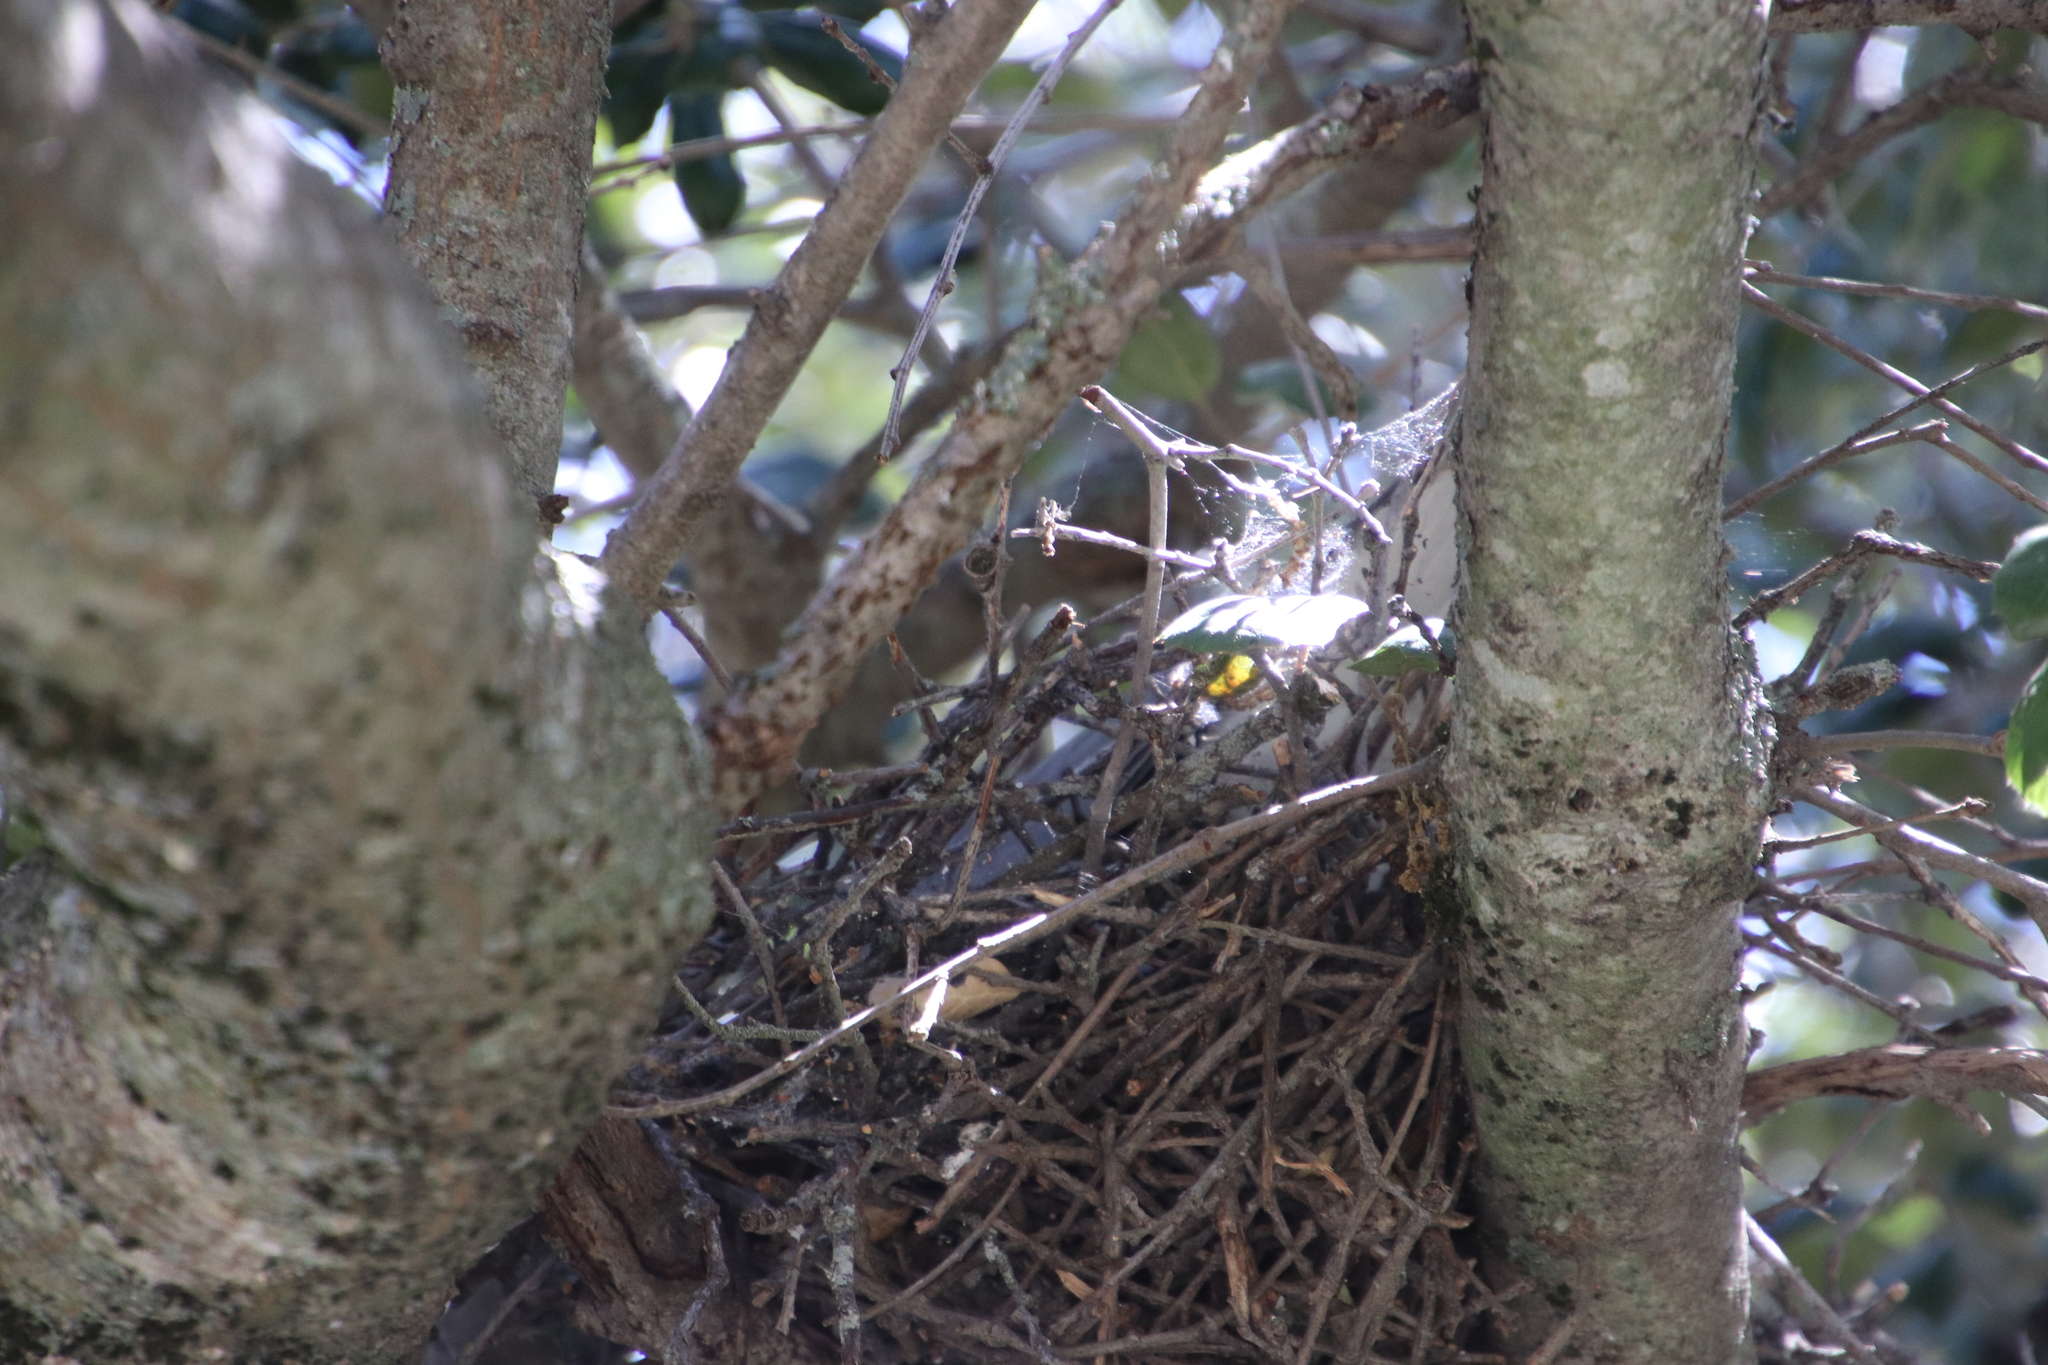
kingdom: Animalia
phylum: Chordata
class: Aves
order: Columbiformes
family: Columbidae
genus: Patagioenas
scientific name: Patagioenas fasciata
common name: Band-tailed pigeon
